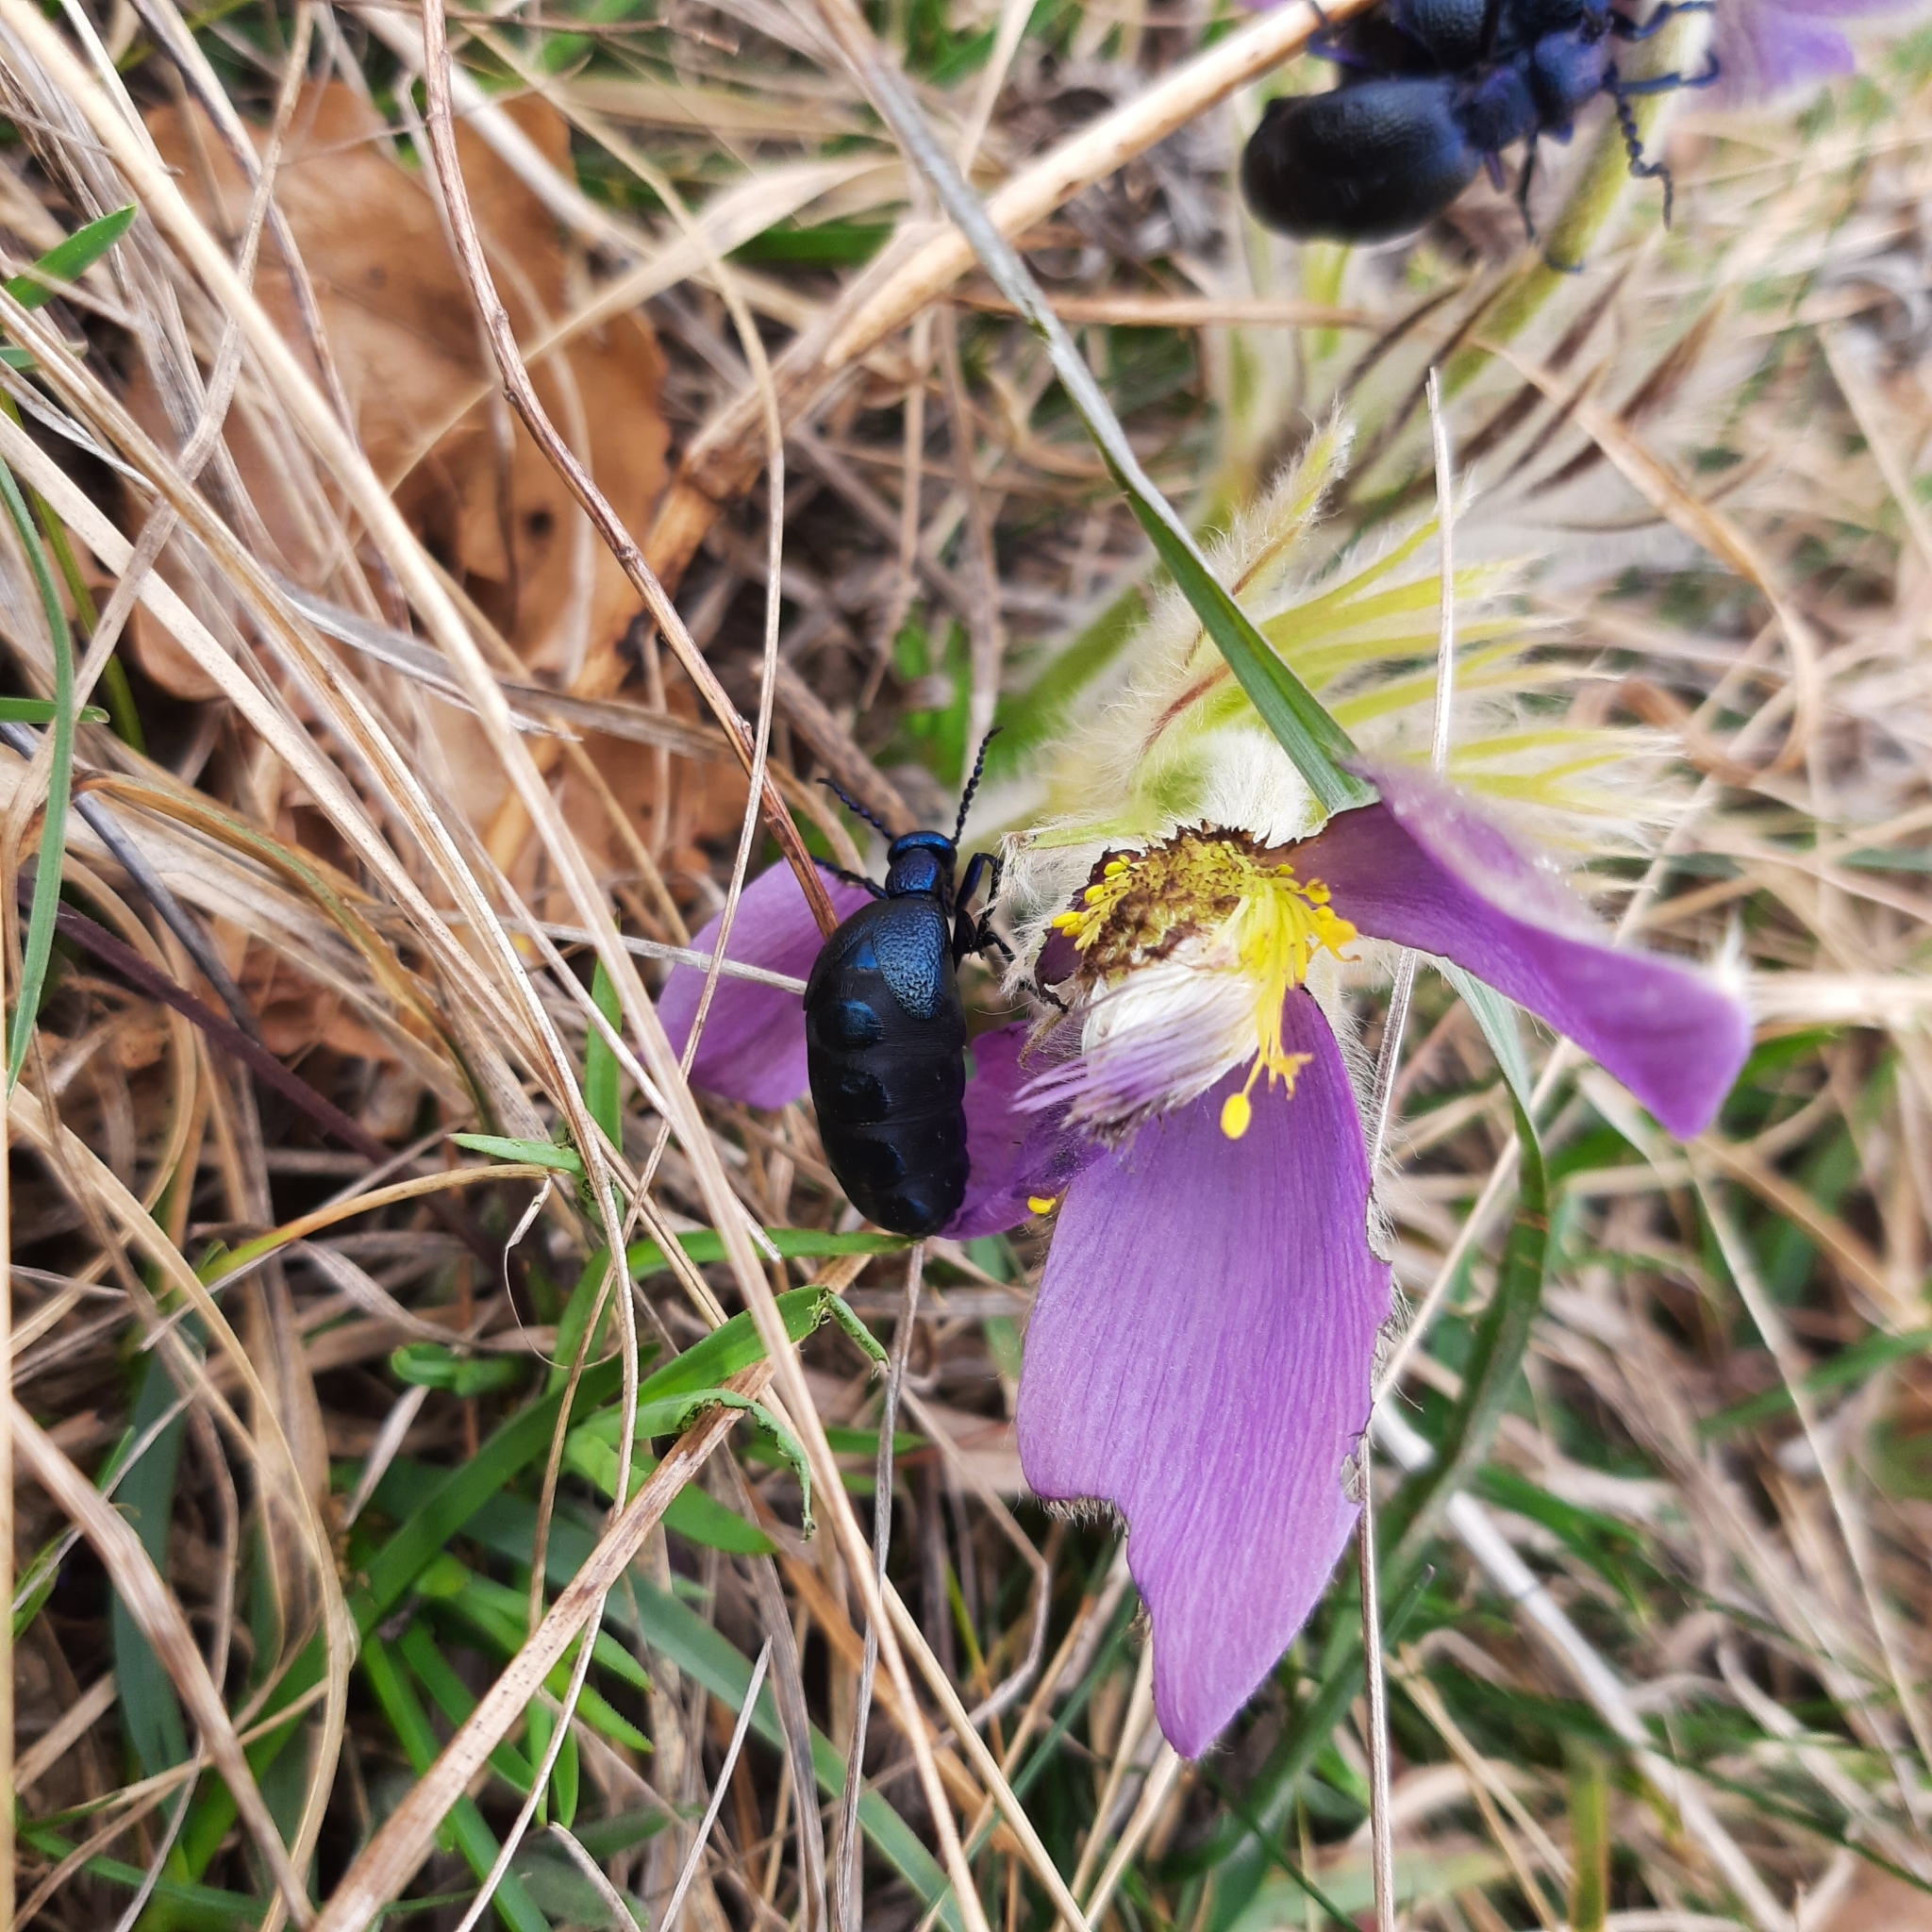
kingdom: Animalia
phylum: Arthropoda
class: Insecta
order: Coleoptera
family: Meloidae
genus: Meloe
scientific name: Meloe proscarabaeus
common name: Black oil-beetle
